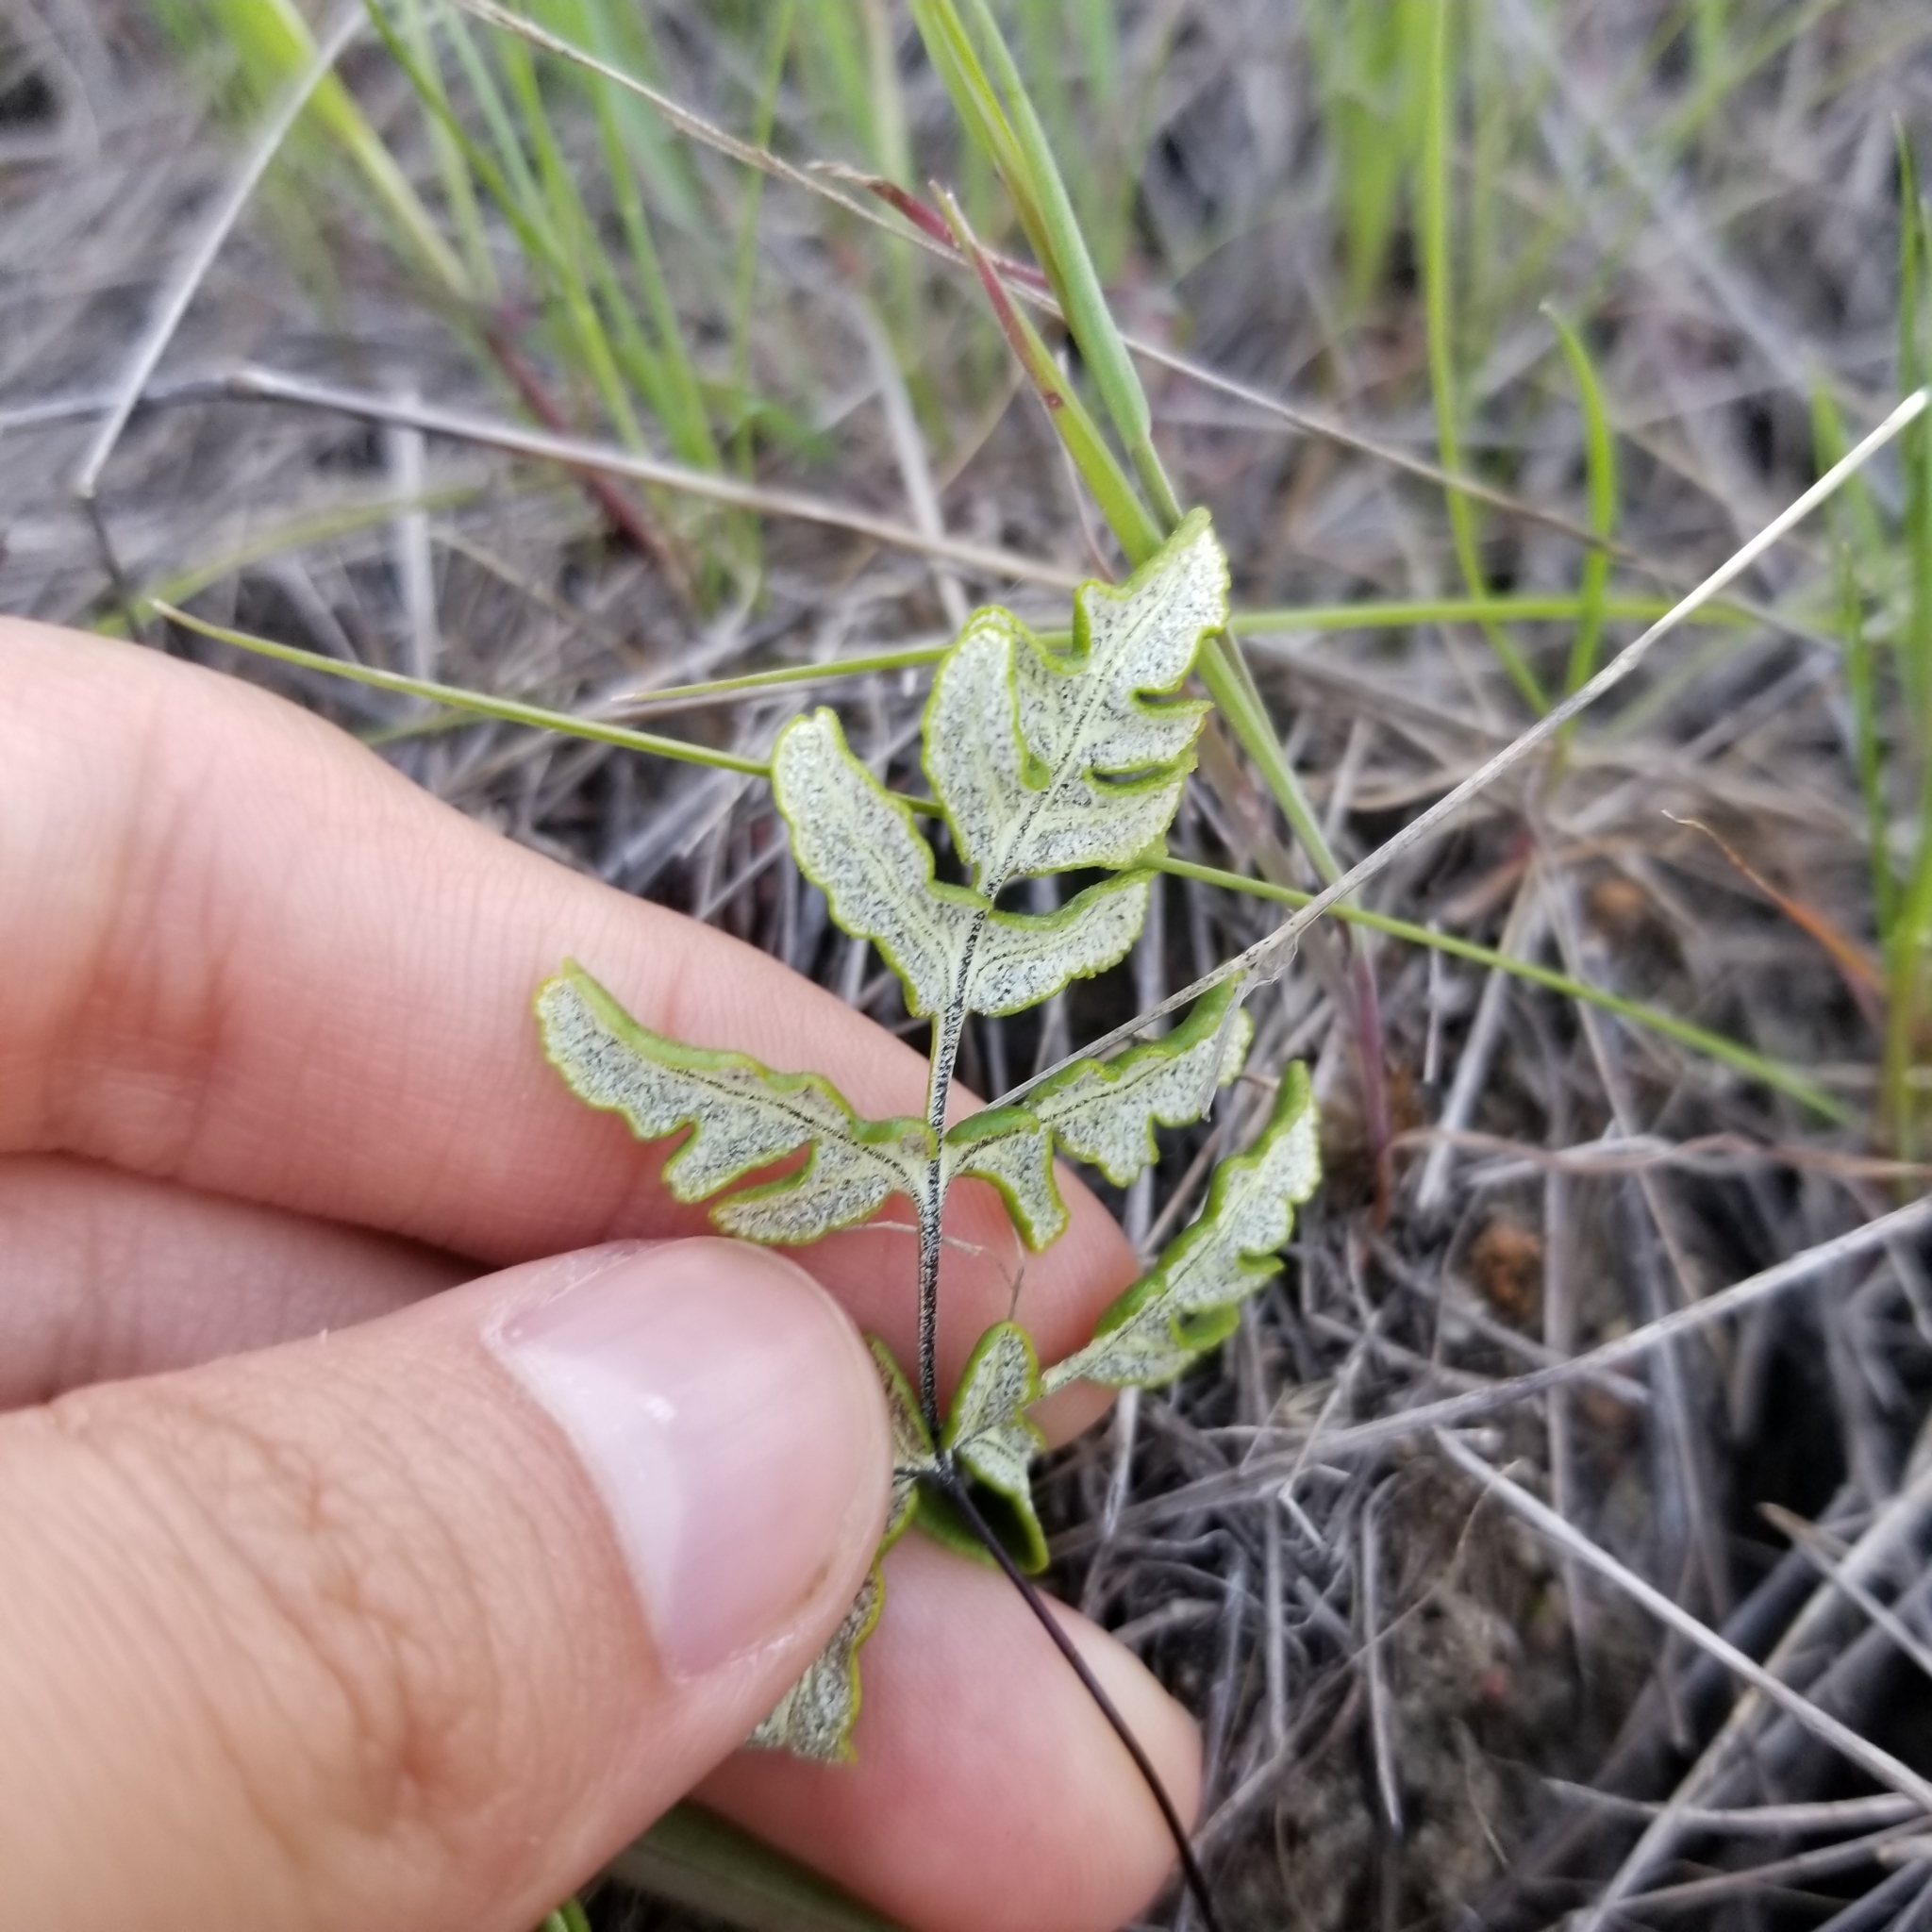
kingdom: Plantae
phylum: Tracheophyta
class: Polypodiopsida
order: Polypodiales
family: Pteridaceae
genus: Pentagramma
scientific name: Pentagramma viscosa
